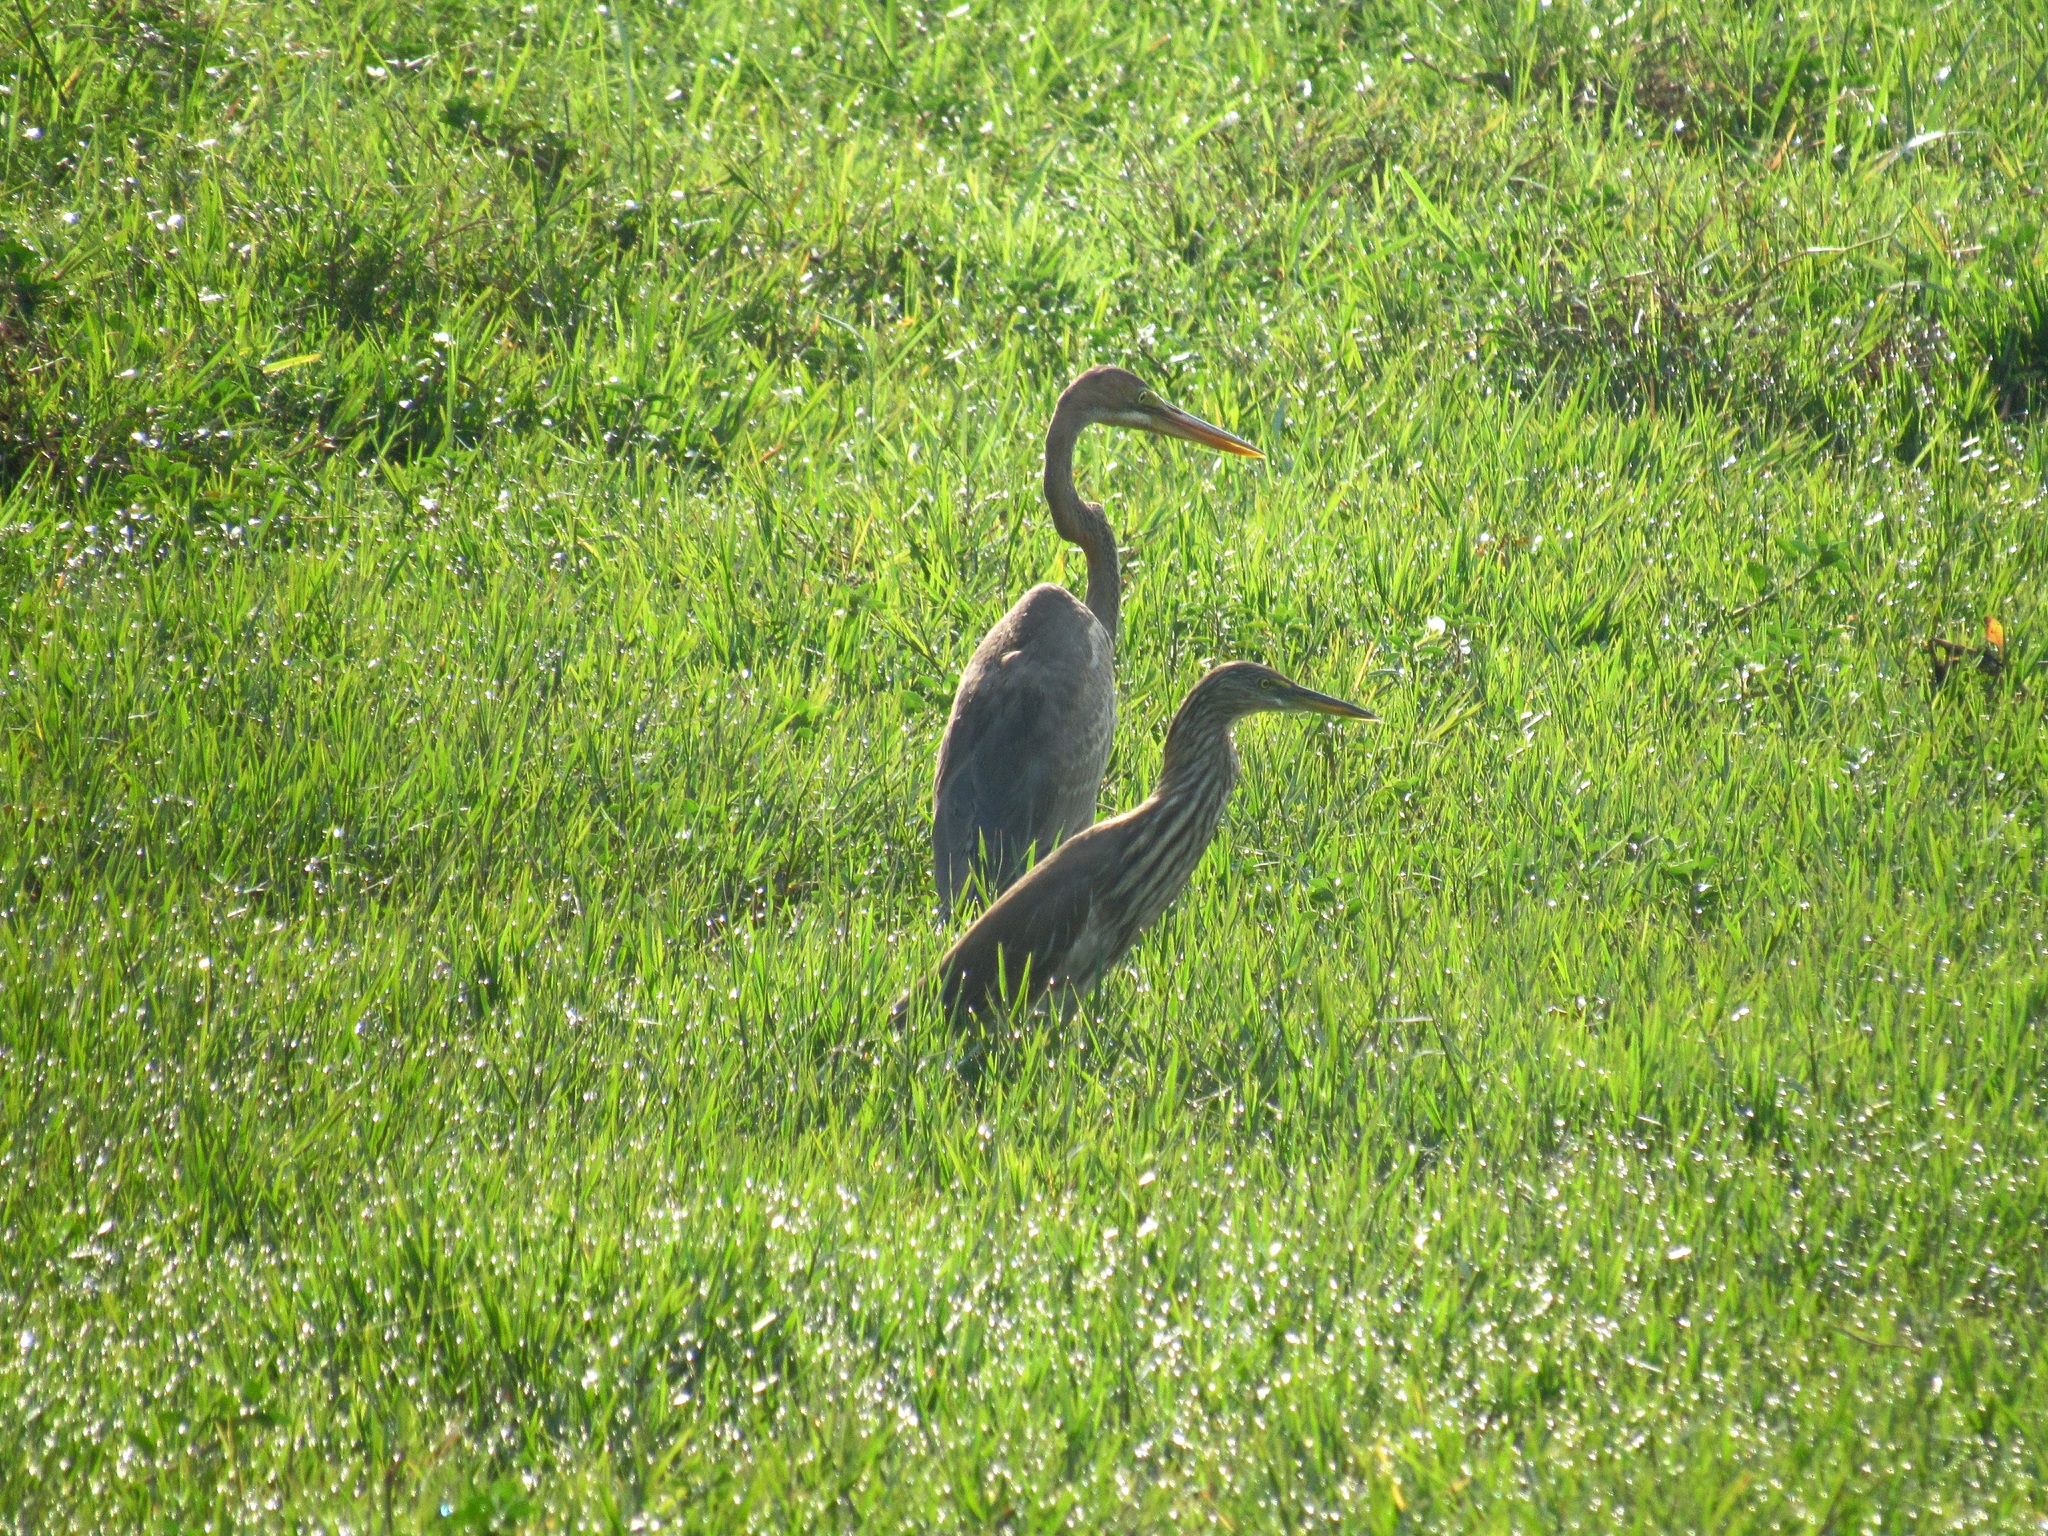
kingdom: Animalia
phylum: Chordata
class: Aves
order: Pelecaniformes
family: Ardeidae
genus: Ardeola
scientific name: Ardeola grayii
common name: Indian pond heron
